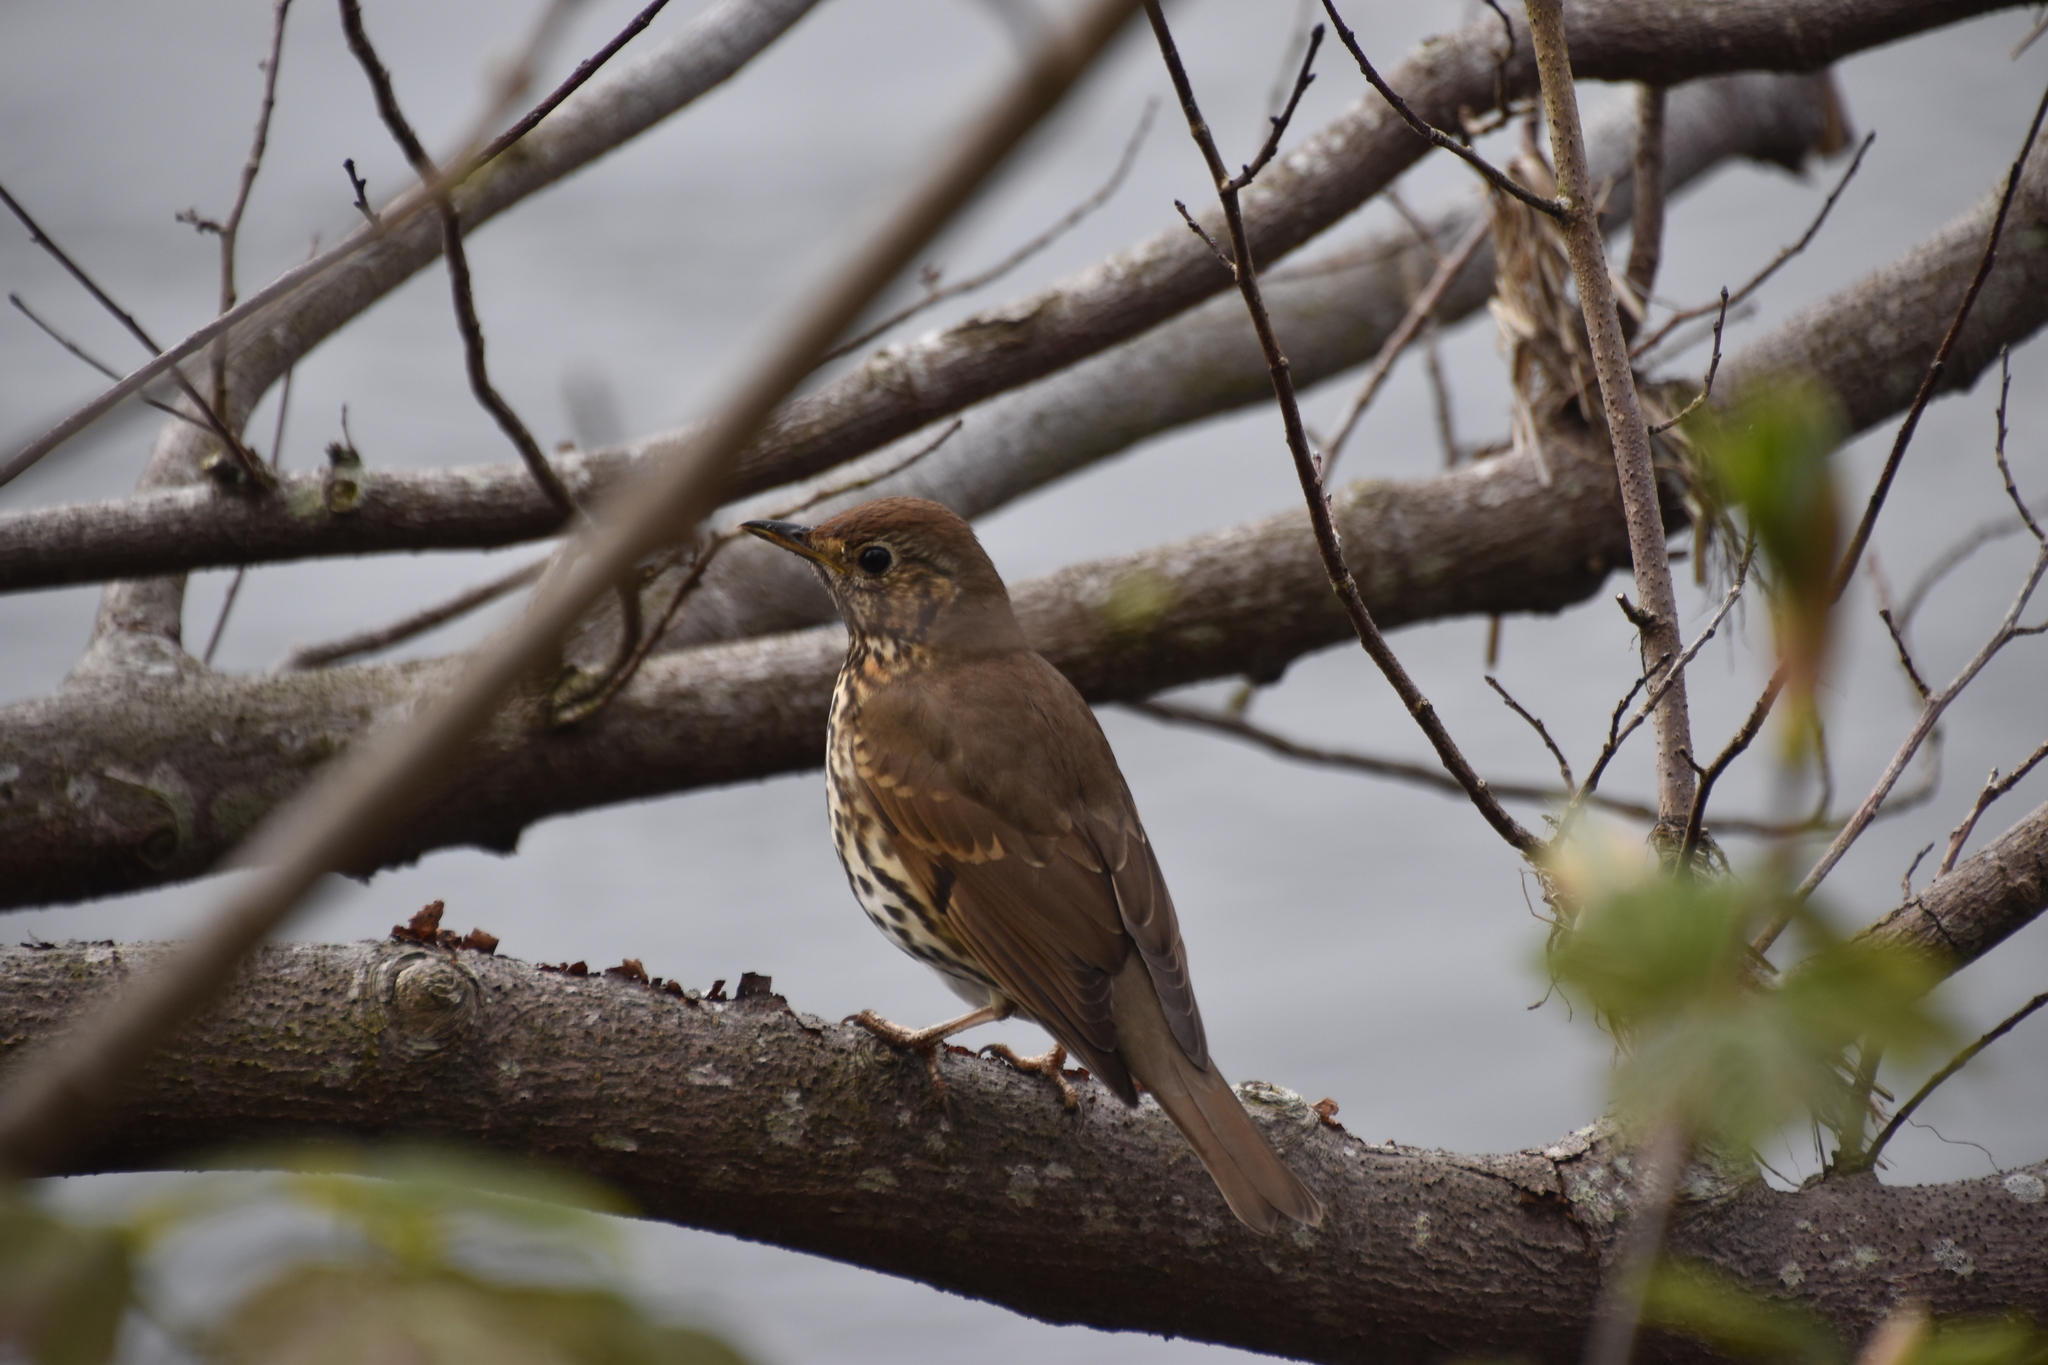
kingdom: Animalia
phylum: Chordata
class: Aves
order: Passeriformes
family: Turdidae
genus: Turdus
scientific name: Turdus philomelos
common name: Song thrush
